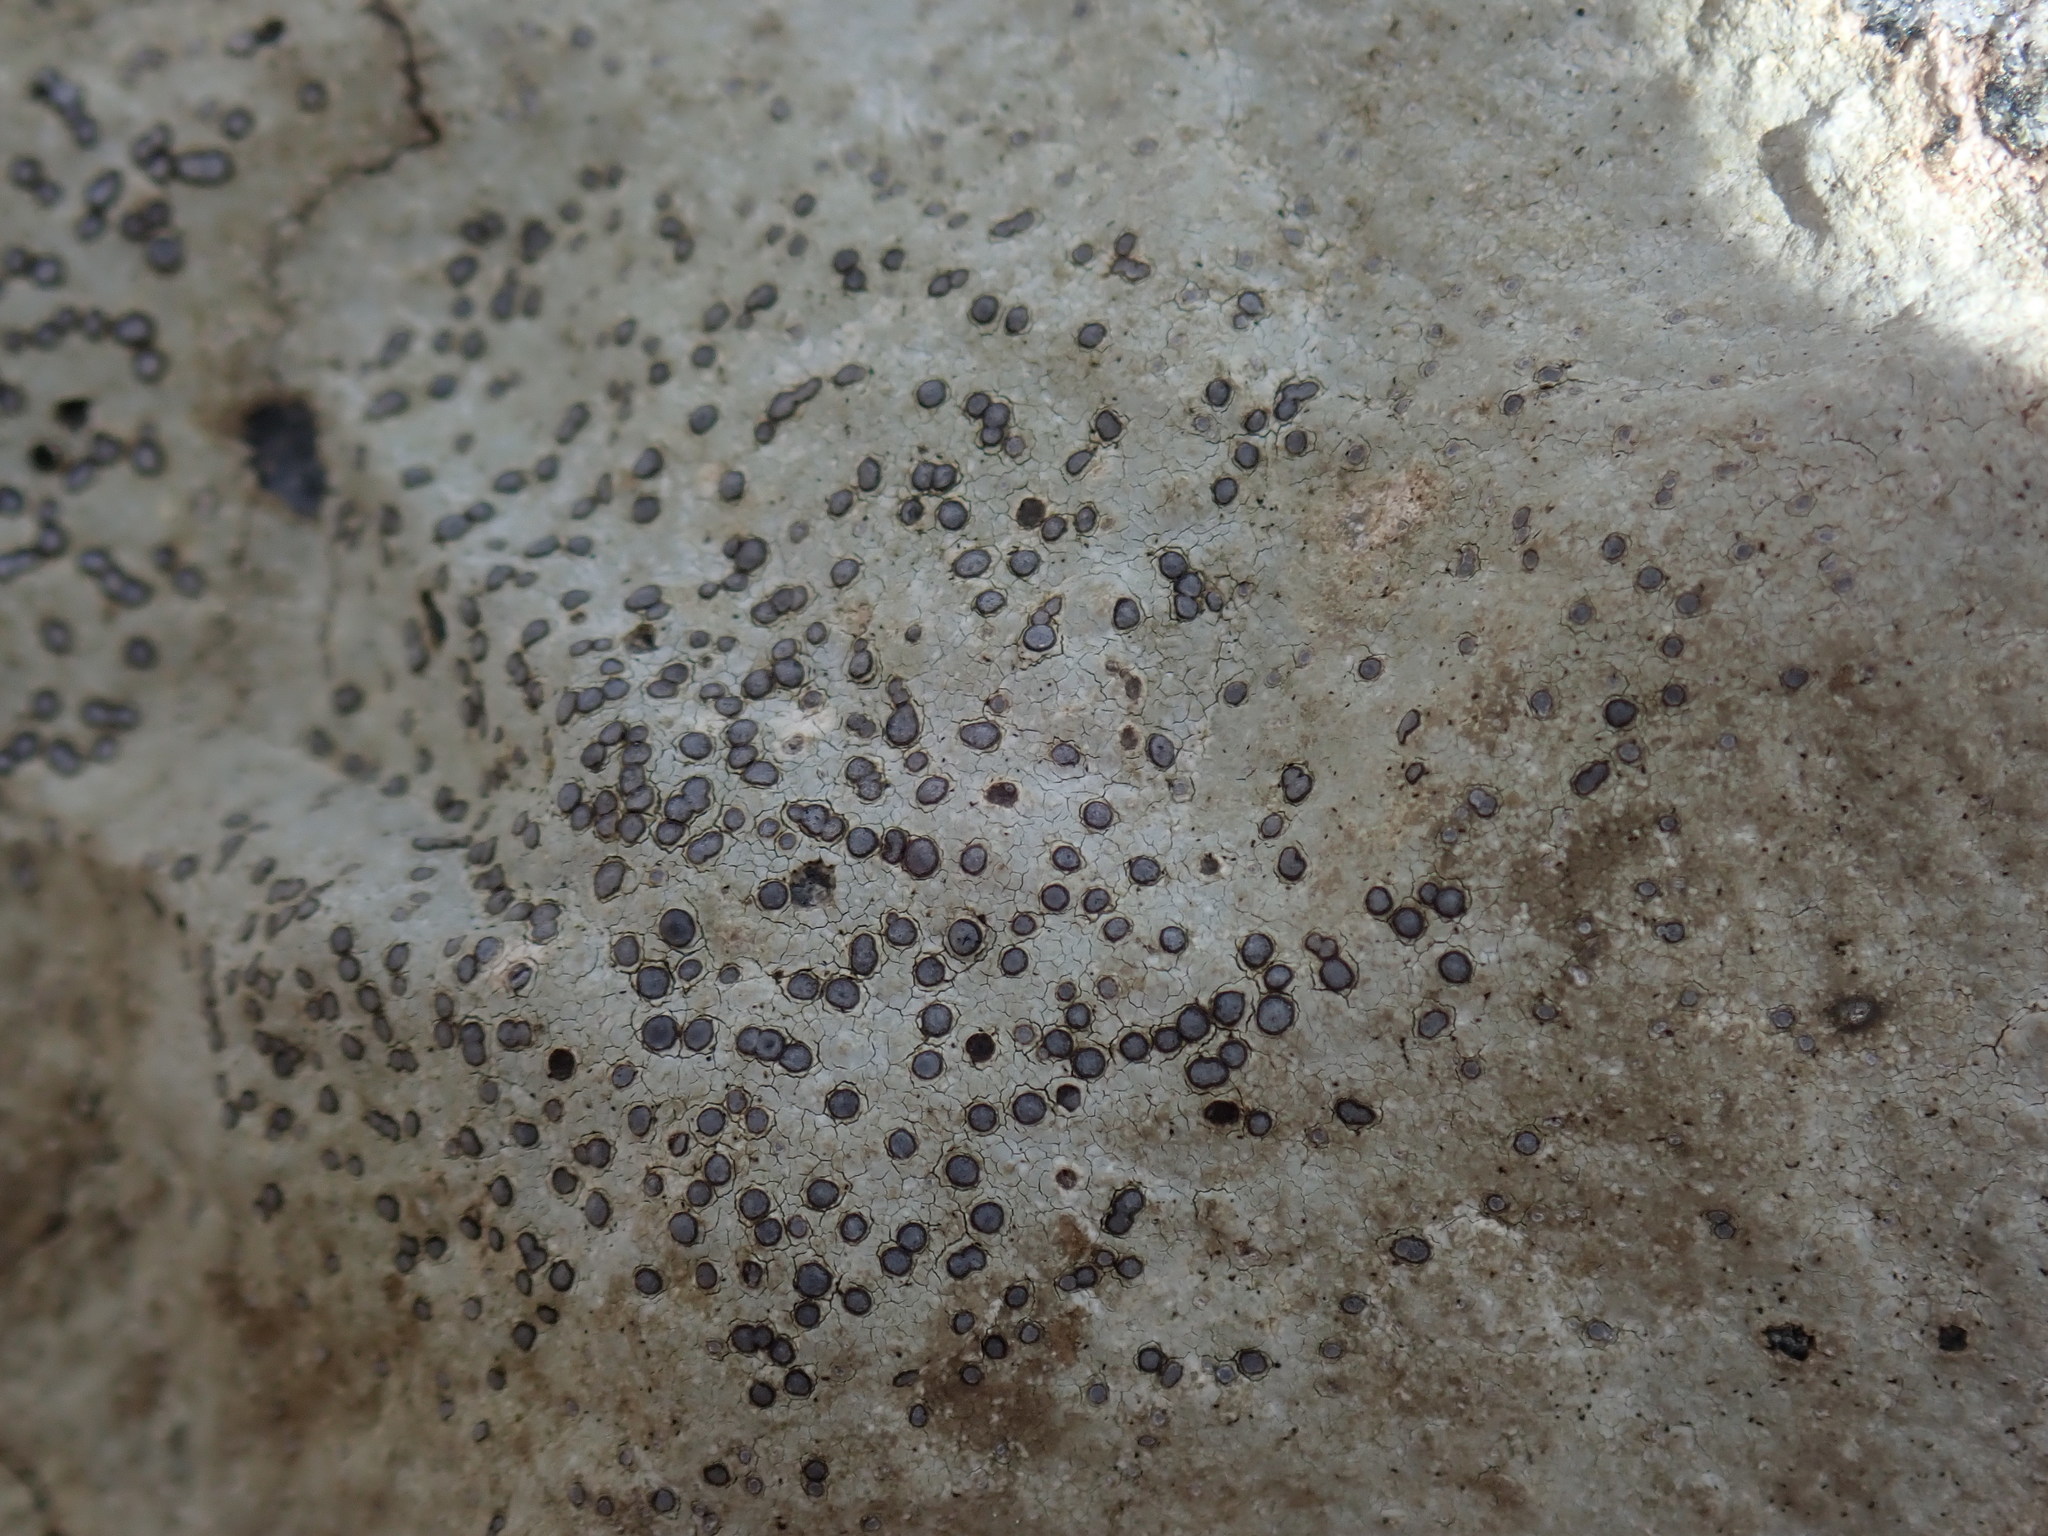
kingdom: Fungi
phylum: Ascomycota
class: Lecanoromycetes
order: Lecideales
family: Lecideaceae
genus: Porpidia
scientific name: Porpidia albocaerulescens
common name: Smokey-eyed boulder lichen
